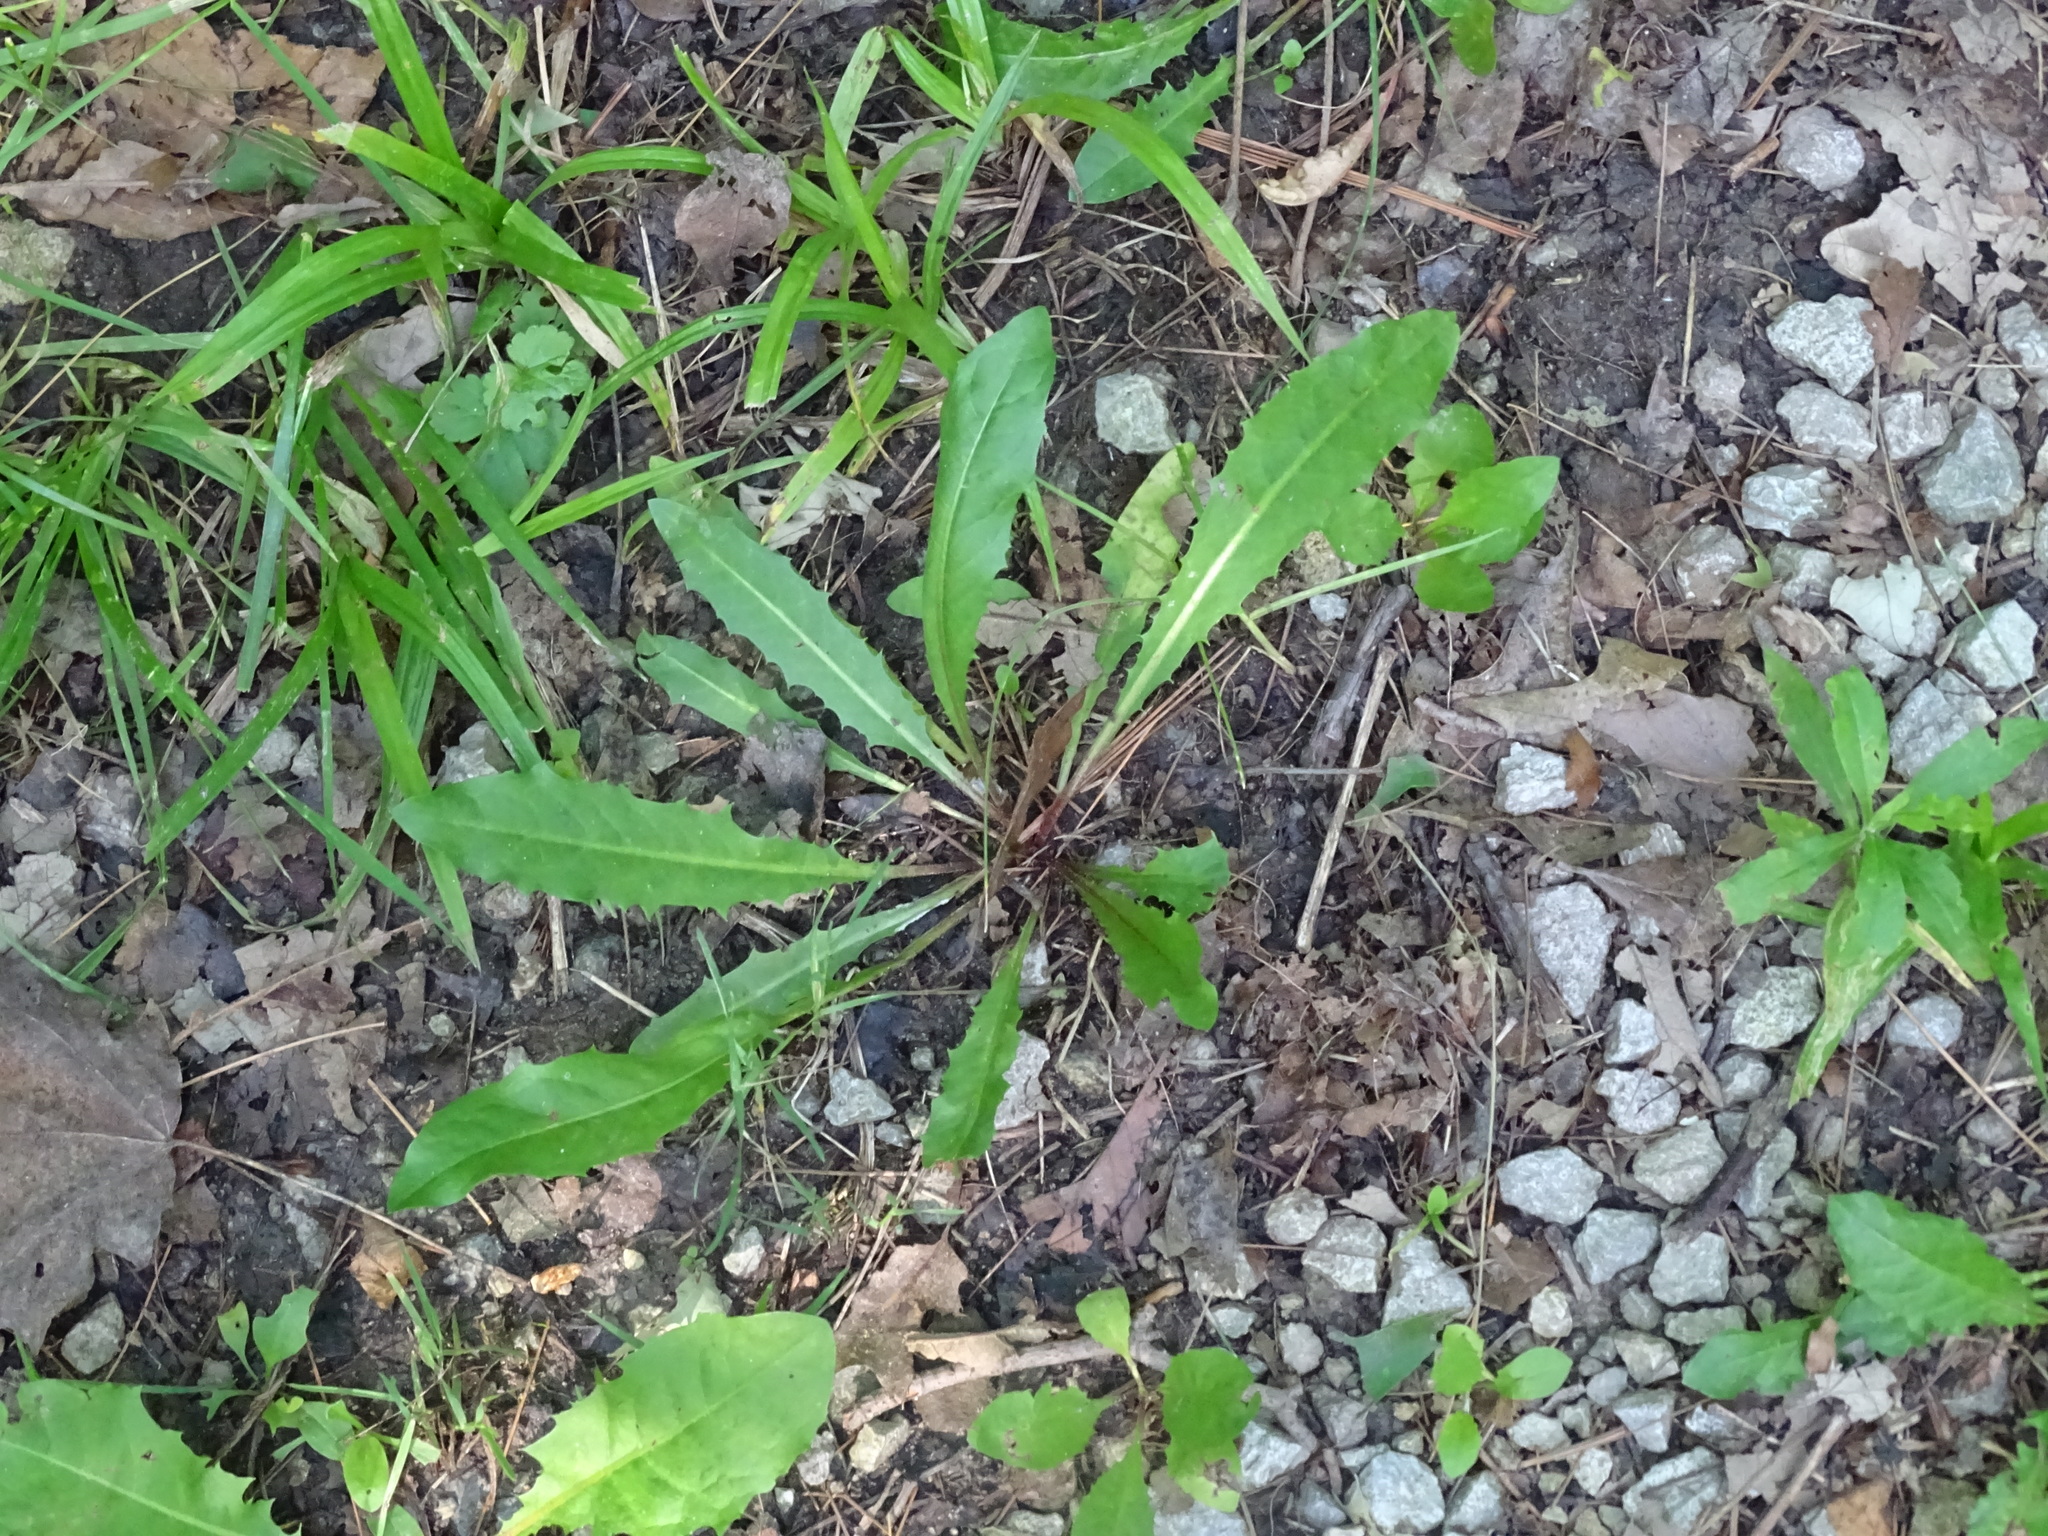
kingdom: Plantae
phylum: Tracheophyta
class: Magnoliopsida
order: Asterales
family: Asteraceae
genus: Taraxacum
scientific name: Taraxacum officinale
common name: Common dandelion
